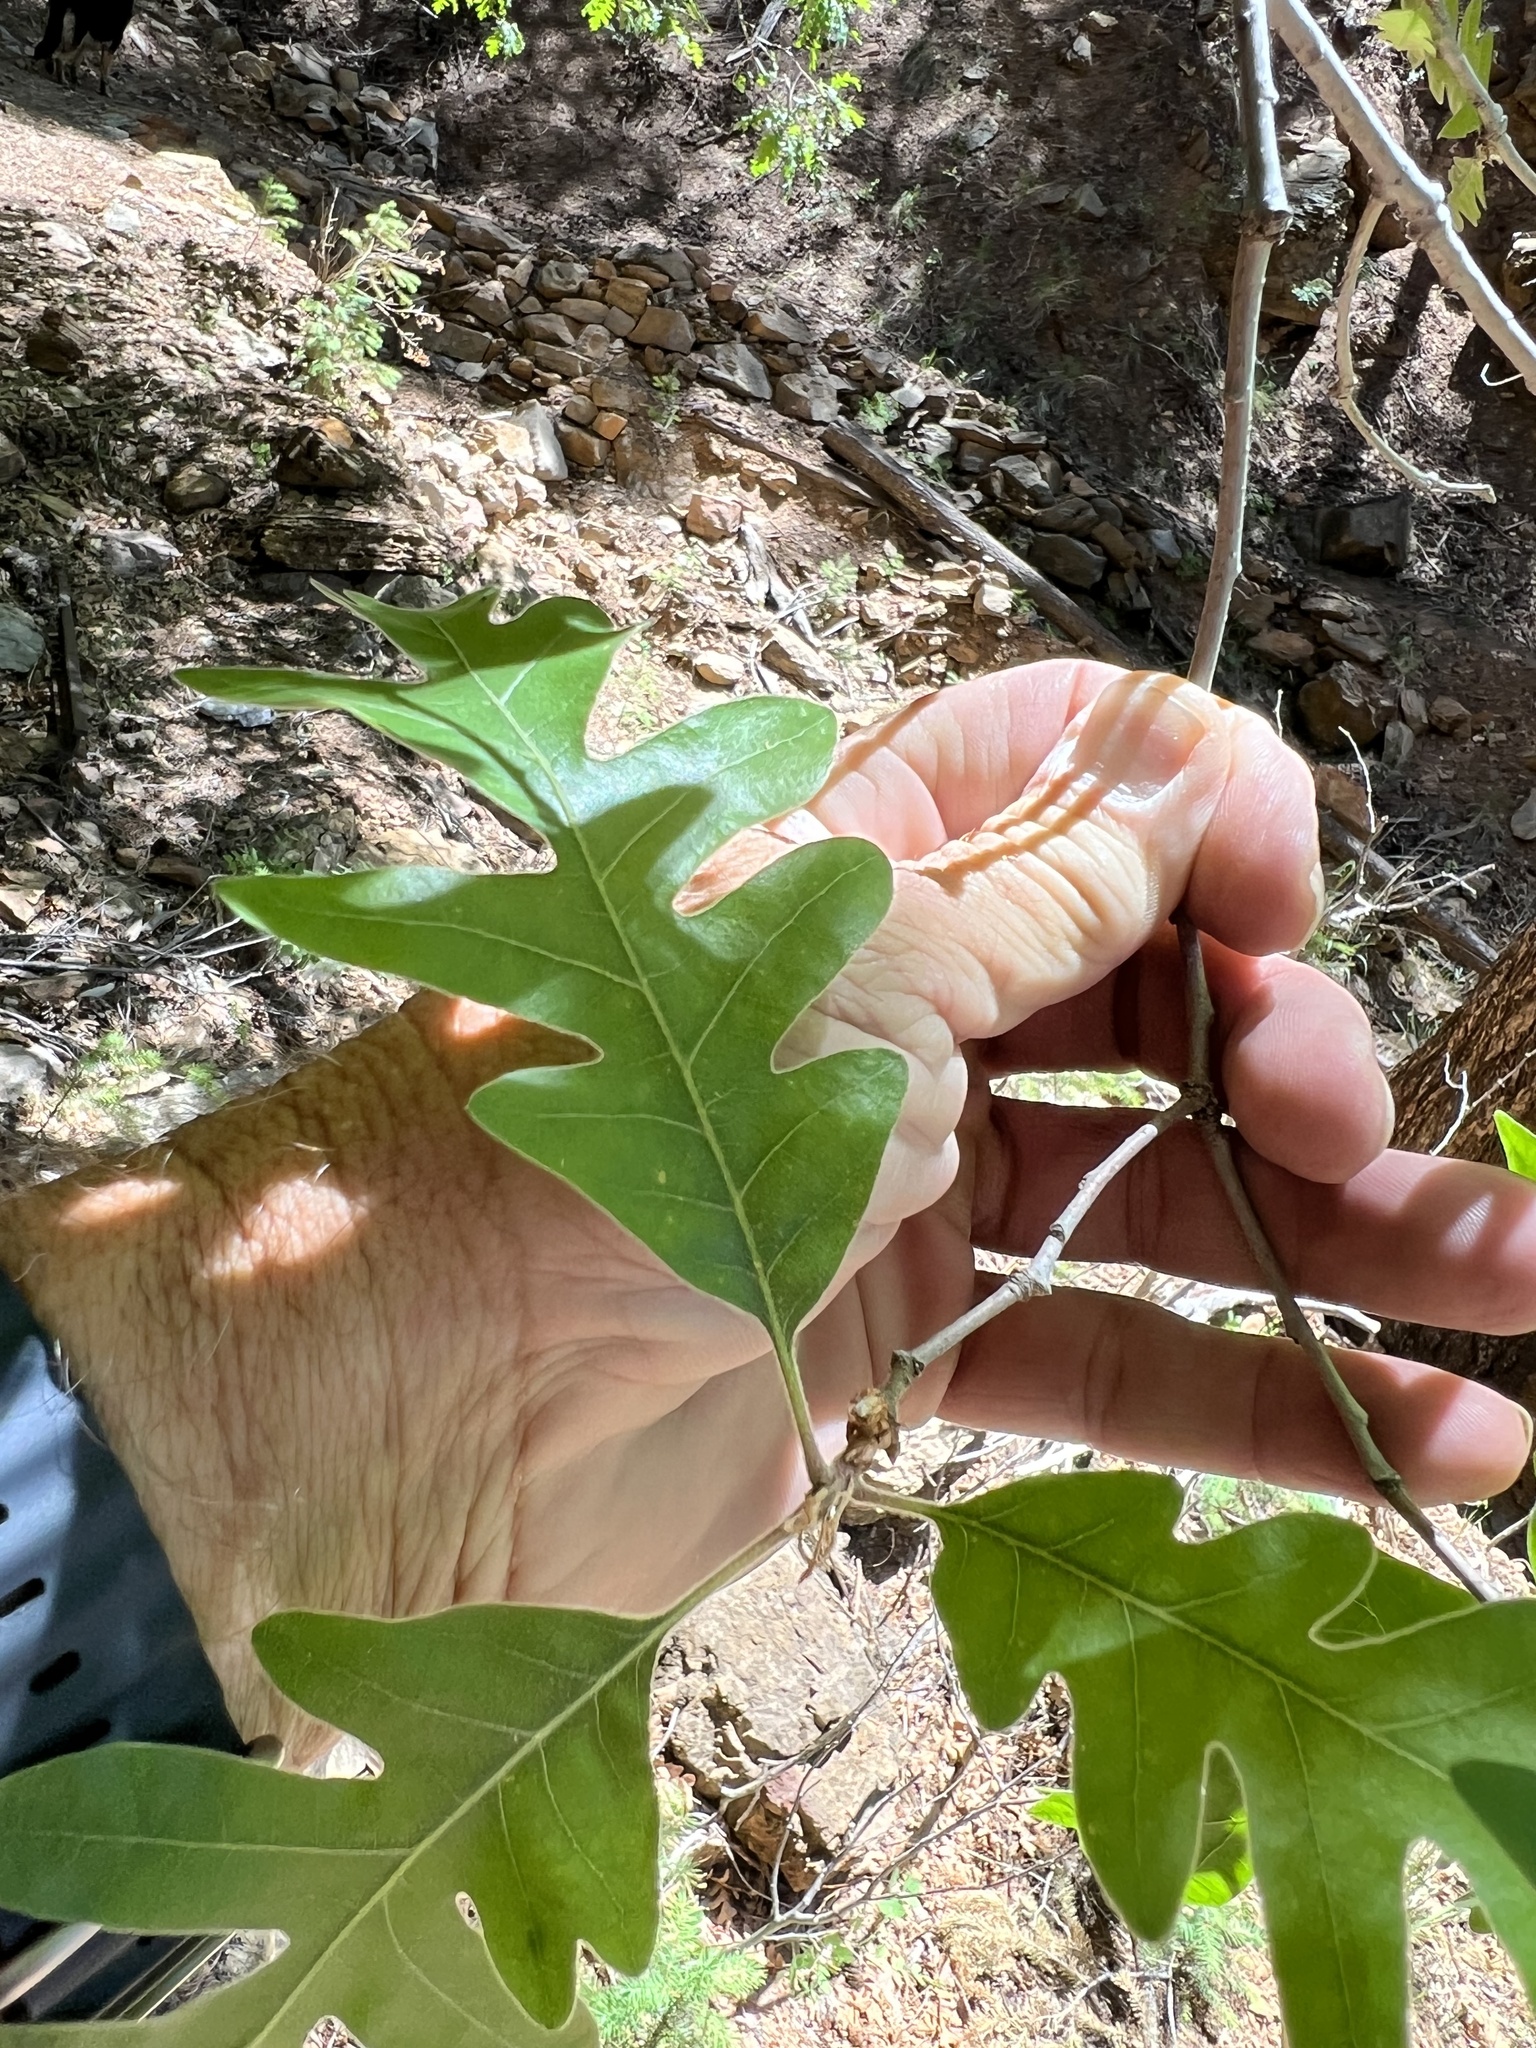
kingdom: Plantae
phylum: Tracheophyta
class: Magnoliopsida
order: Fagales
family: Fagaceae
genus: Quercus
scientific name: Quercus gambelii
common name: Gambel oak
